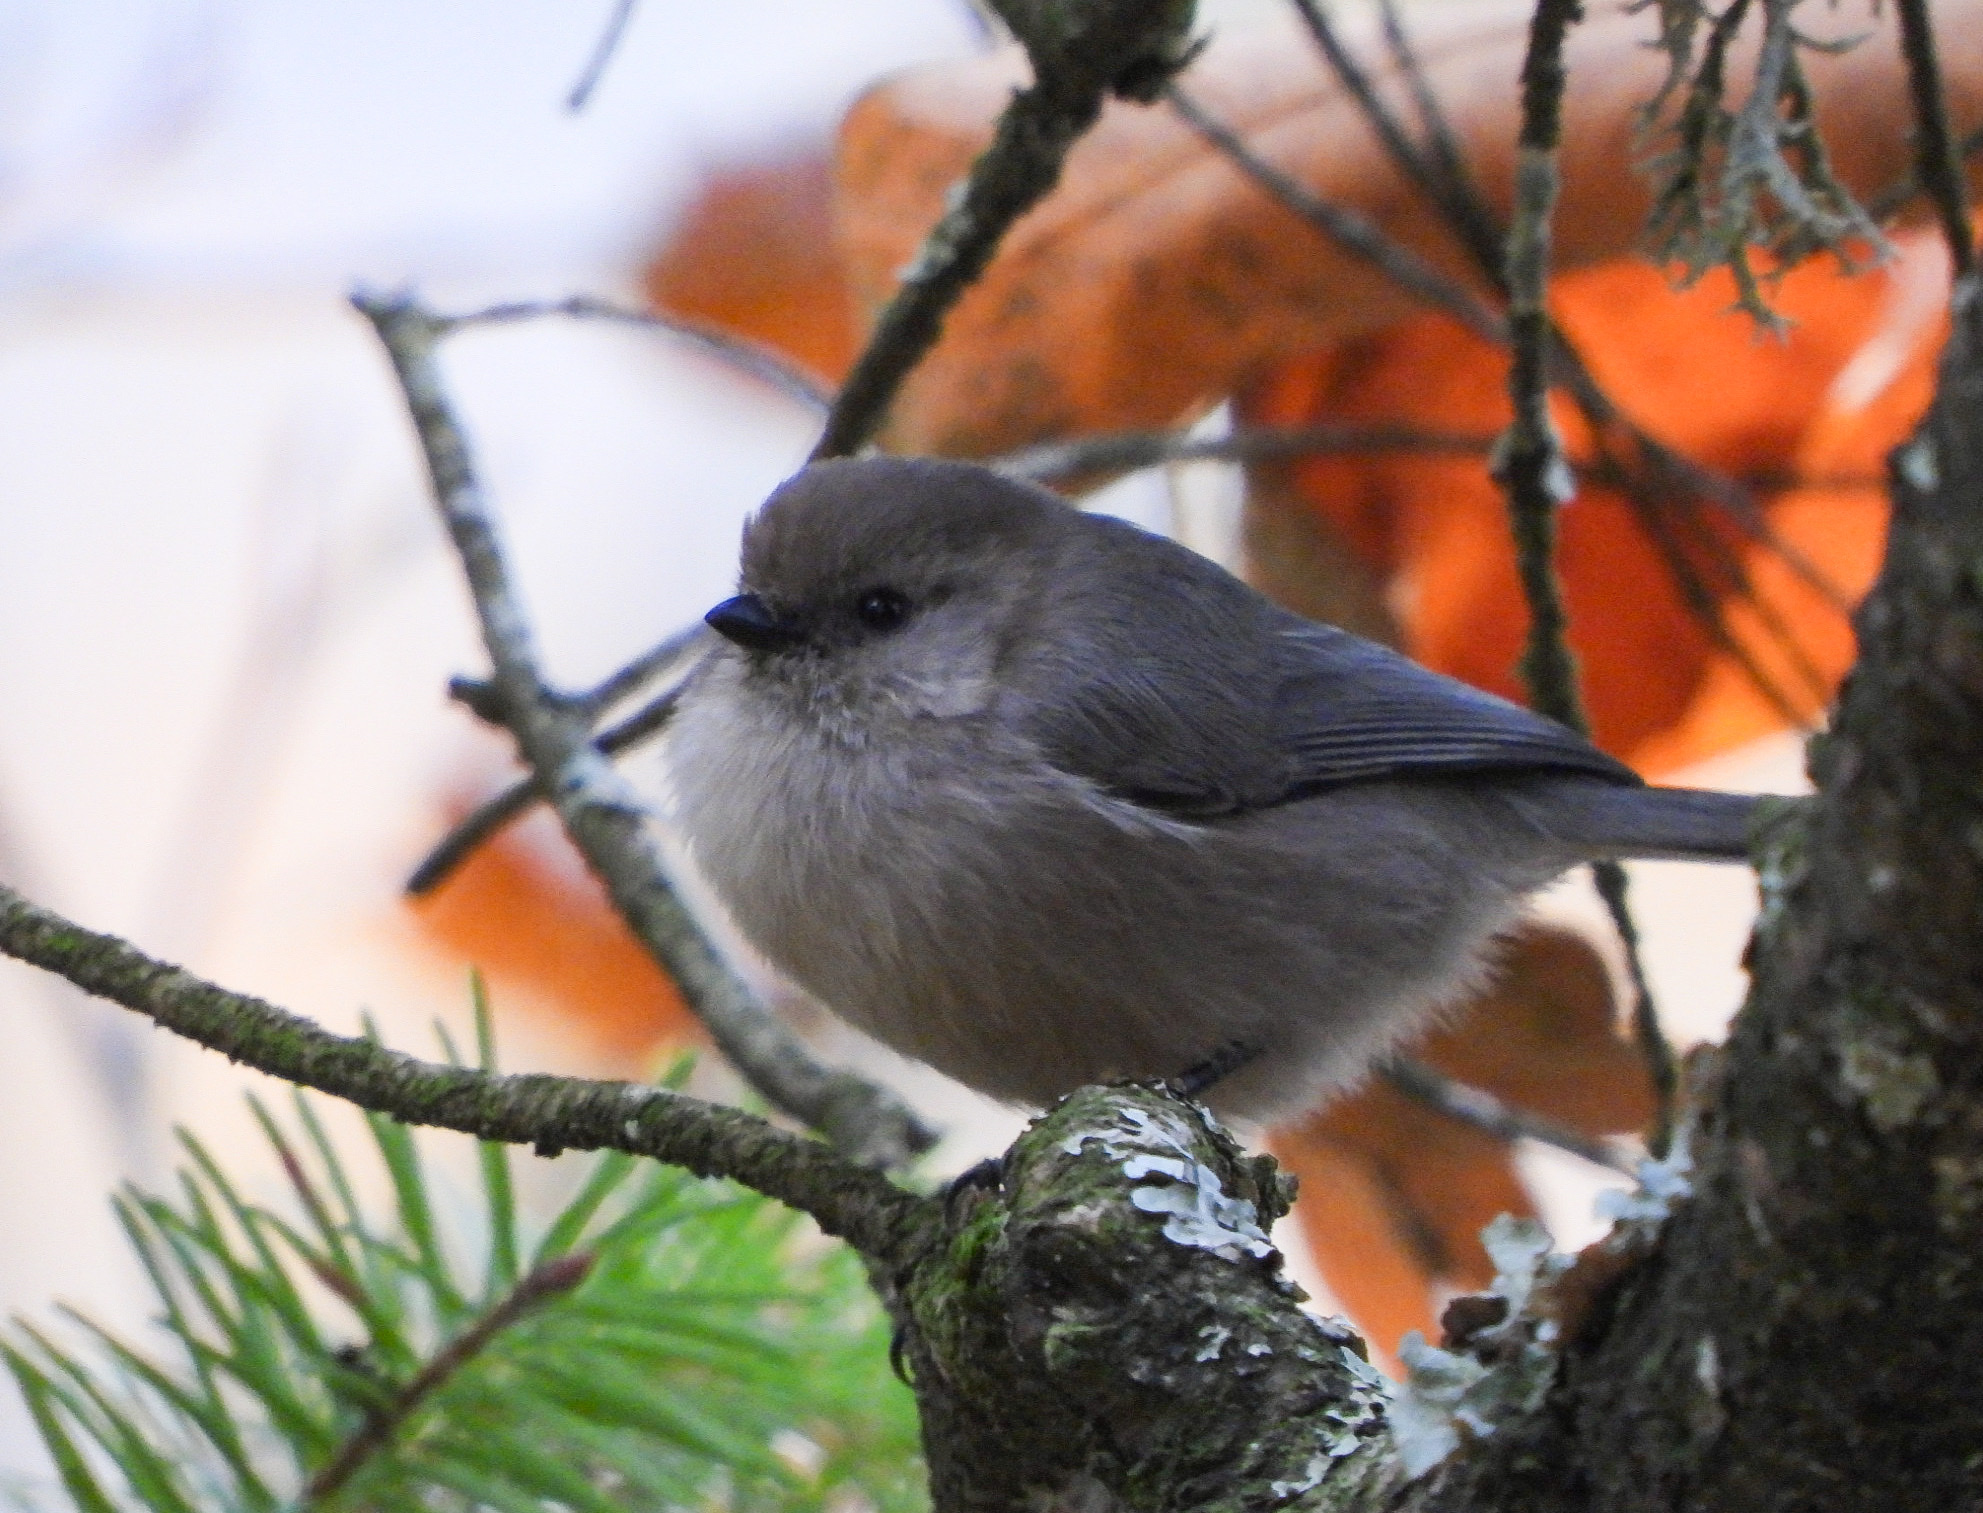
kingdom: Animalia
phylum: Chordata
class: Aves
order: Passeriformes
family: Aegithalidae
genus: Psaltriparus
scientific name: Psaltriparus minimus
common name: American bushtit
